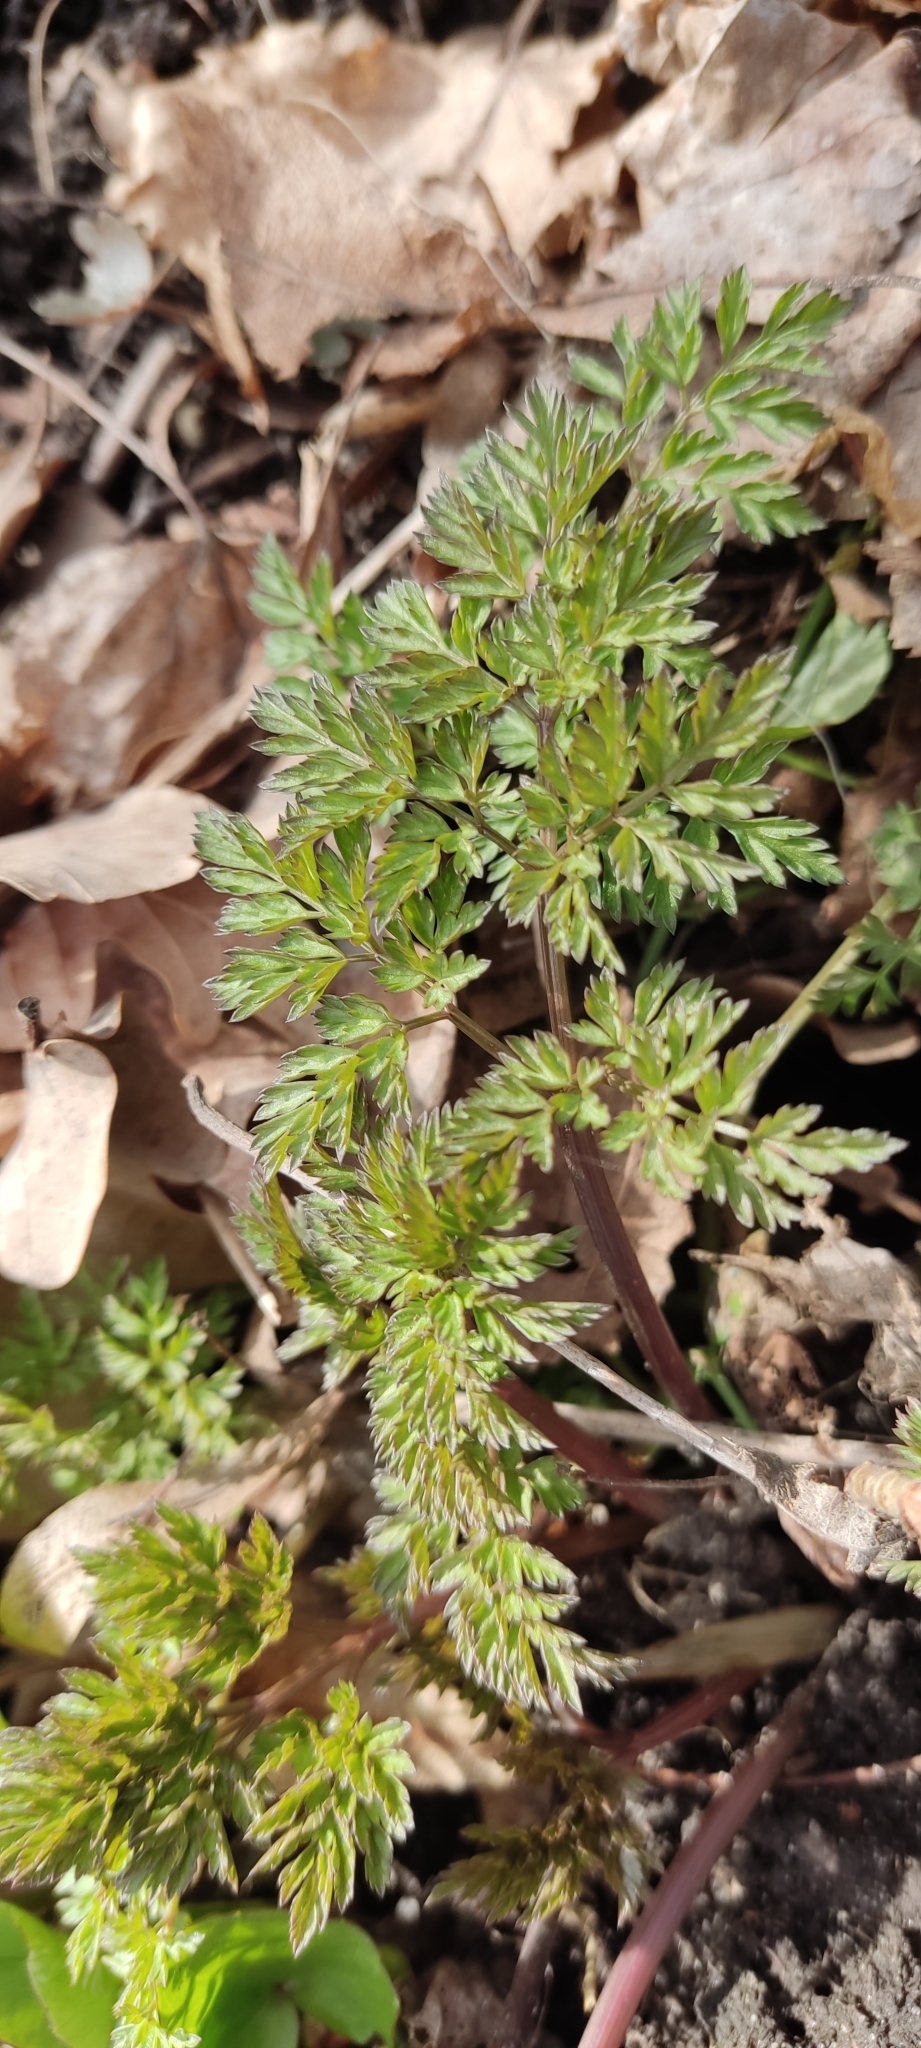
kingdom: Plantae
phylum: Tracheophyta
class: Magnoliopsida
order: Apiales
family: Apiaceae
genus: Anthriscus
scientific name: Anthriscus sylvestris
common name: Cow parsley
